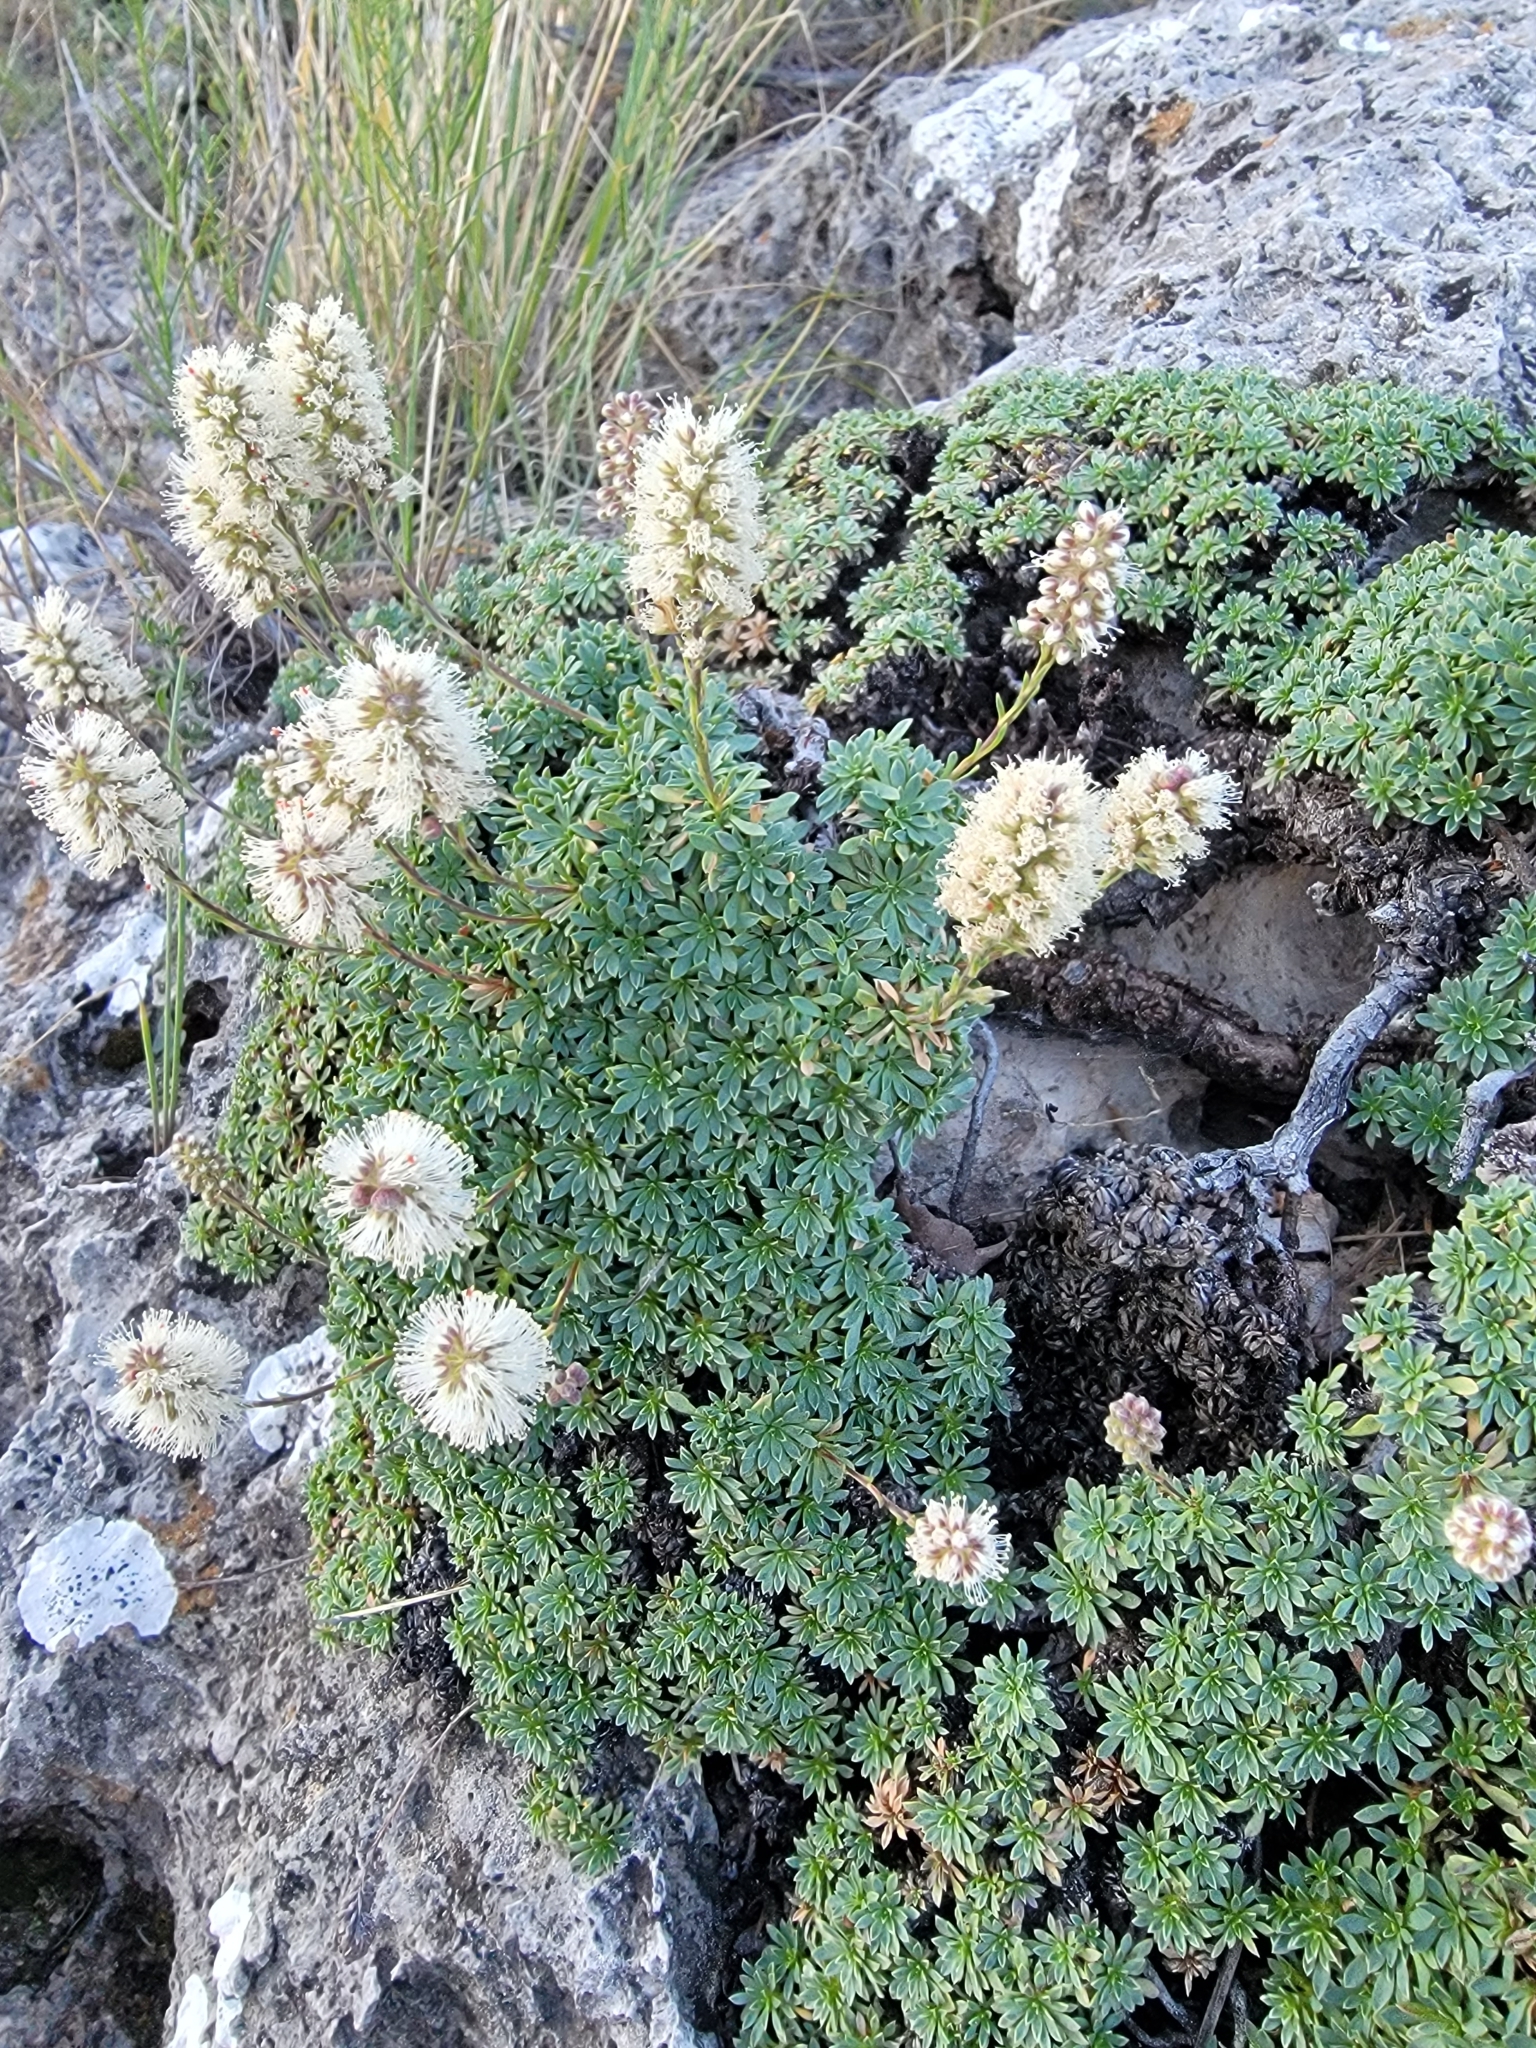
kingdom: Plantae
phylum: Tracheophyta
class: Magnoliopsida
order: Rosales
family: Rosaceae
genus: Petrophytum
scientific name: Petrophytum caespitosum
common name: Mat rockspirea
